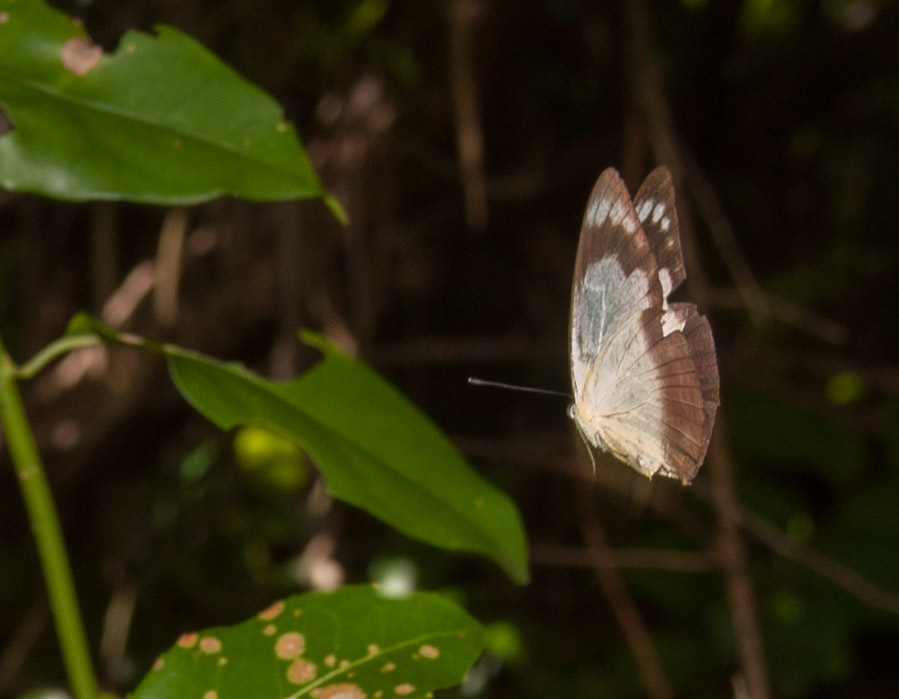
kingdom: Animalia
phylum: Arthropoda
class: Insecta
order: Lepidoptera
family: Pieridae
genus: Appias
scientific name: Appias paulina
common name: Ceylon lesser albatross
